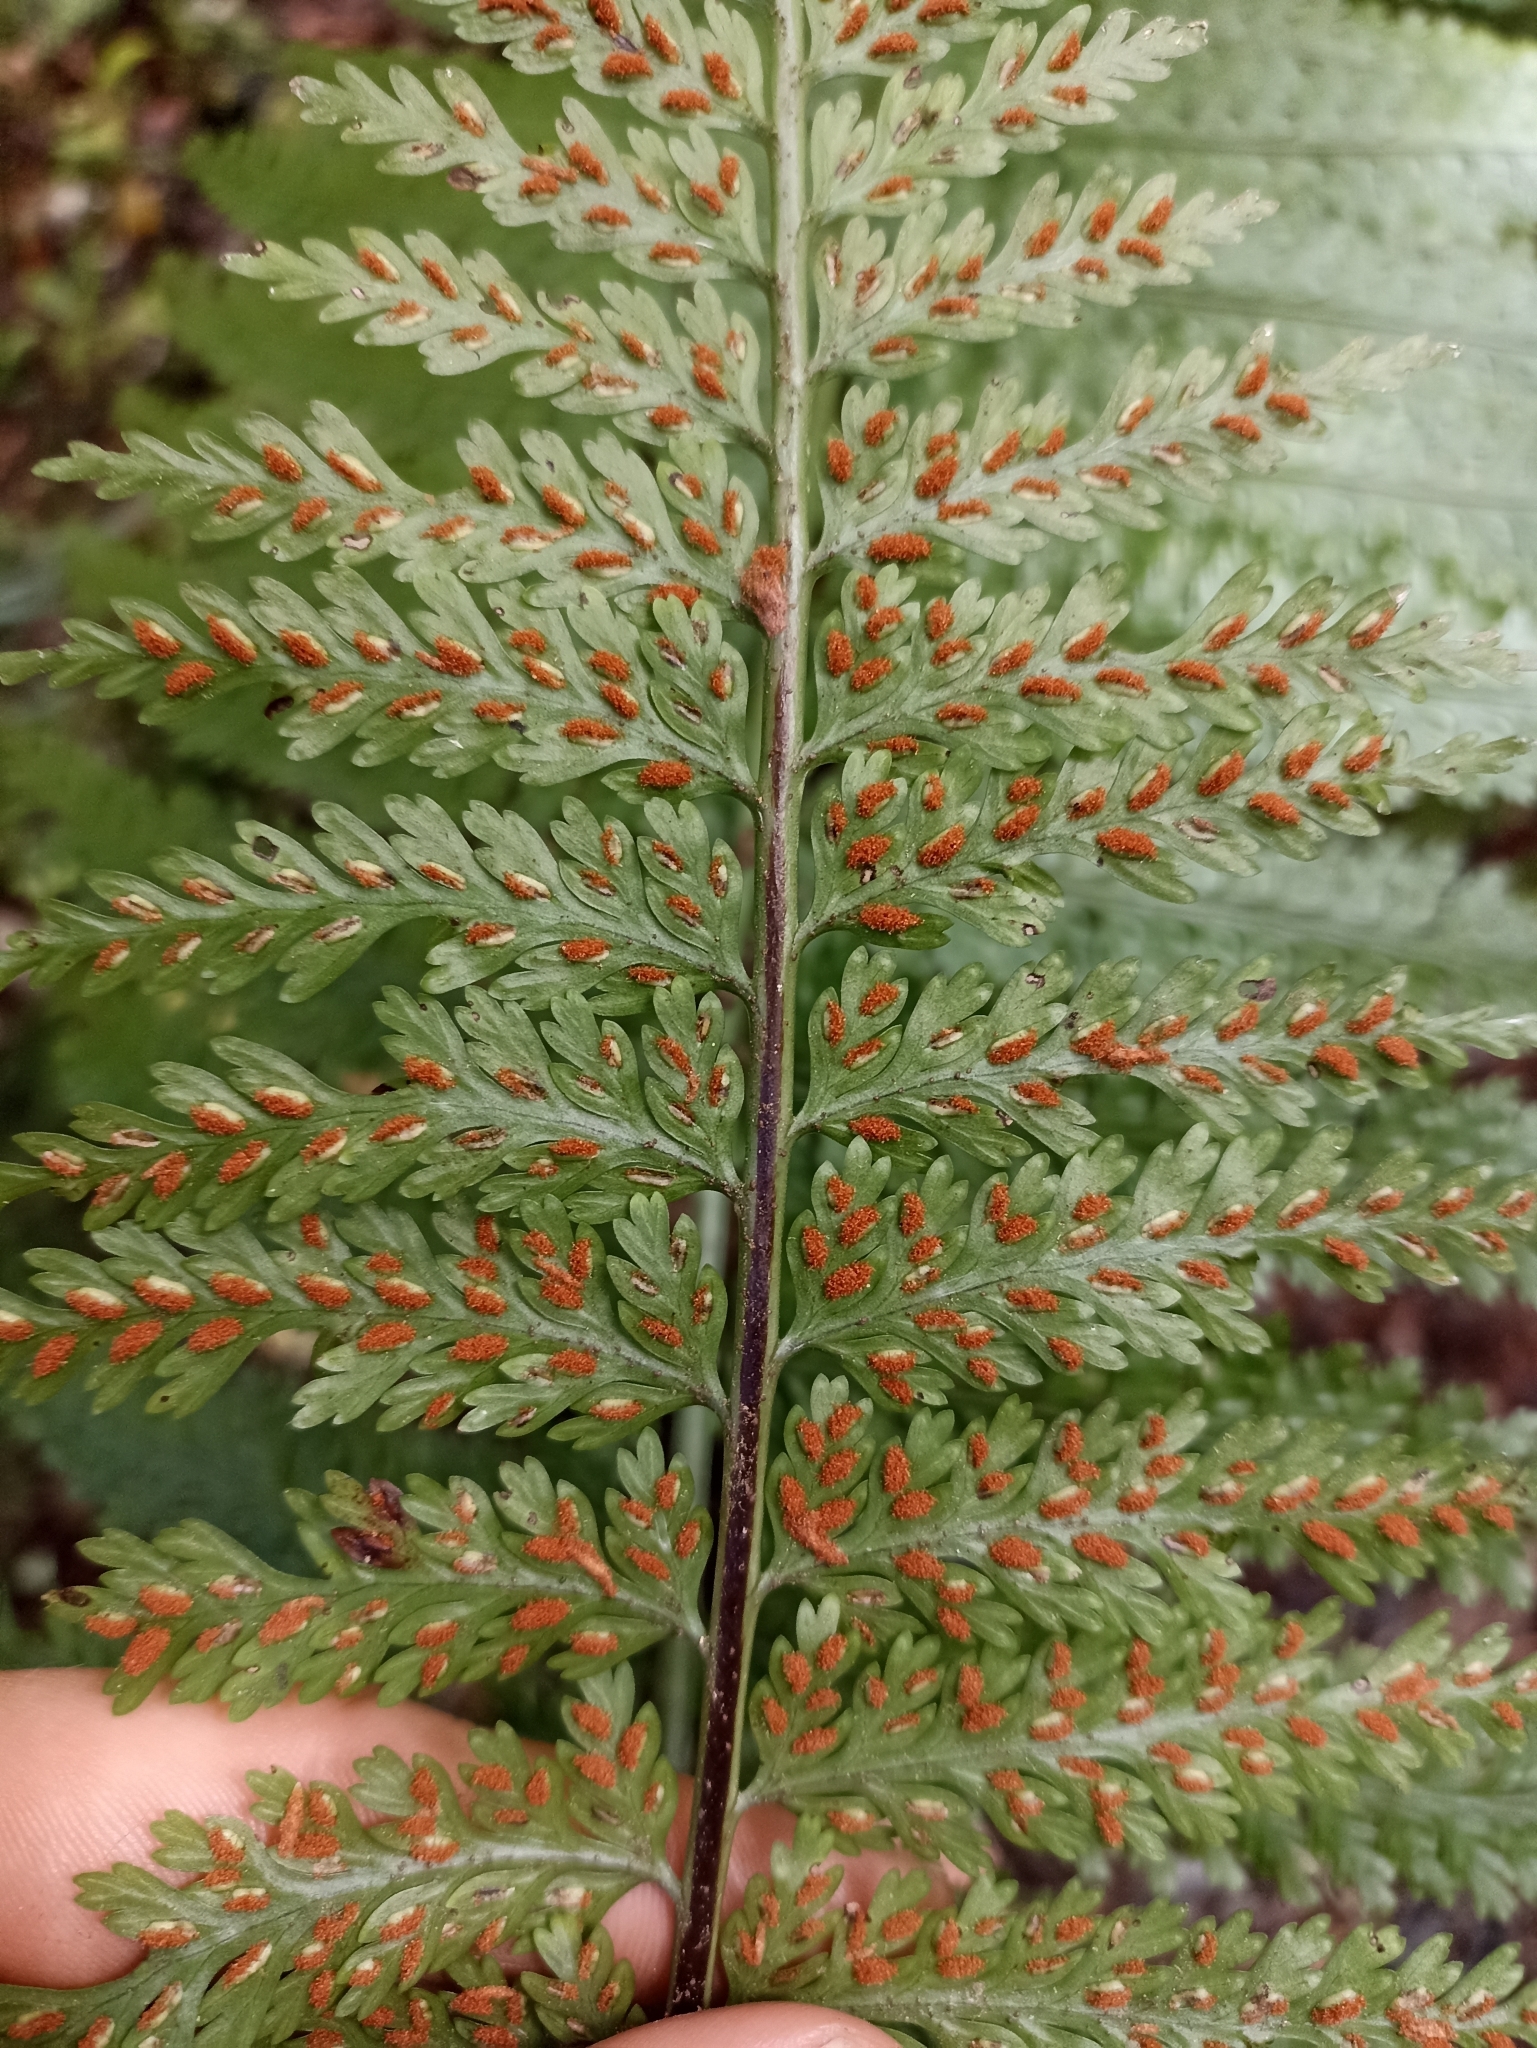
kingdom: Plantae
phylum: Tracheophyta
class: Polypodiopsida
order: Polypodiales
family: Aspleniaceae
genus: Asplenium
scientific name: Asplenium bulbiferum
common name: Mother fern
